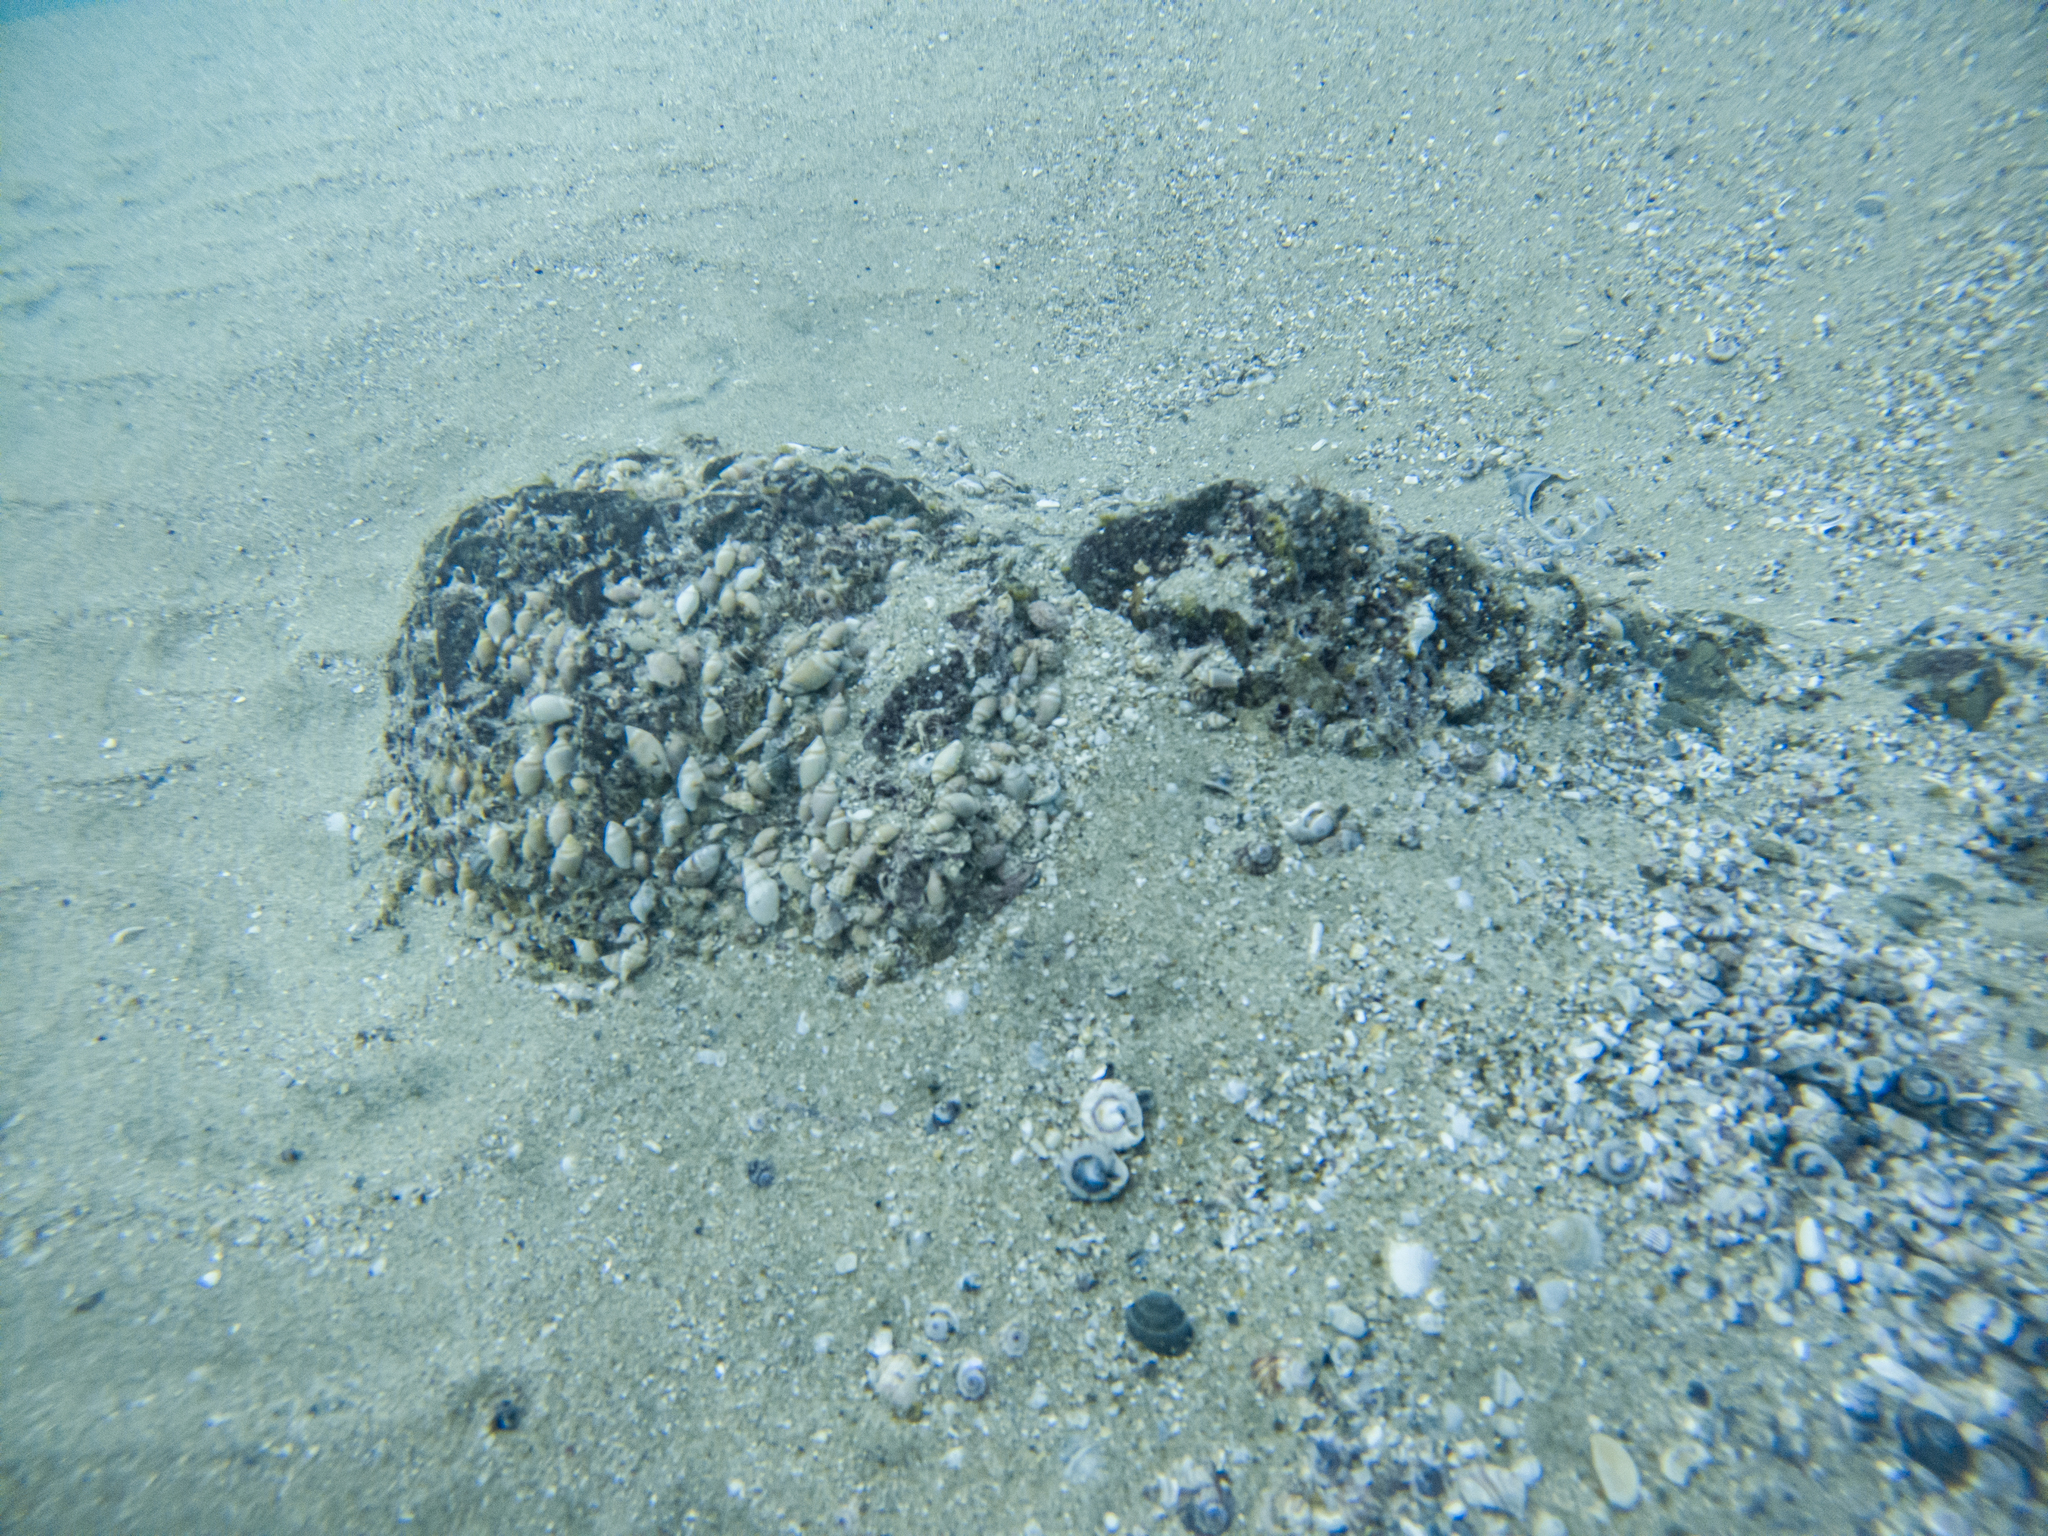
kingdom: Animalia
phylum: Mollusca
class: Gastropoda
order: Neogastropoda
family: Ancillariidae
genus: Amalda
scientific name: Amalda australis
